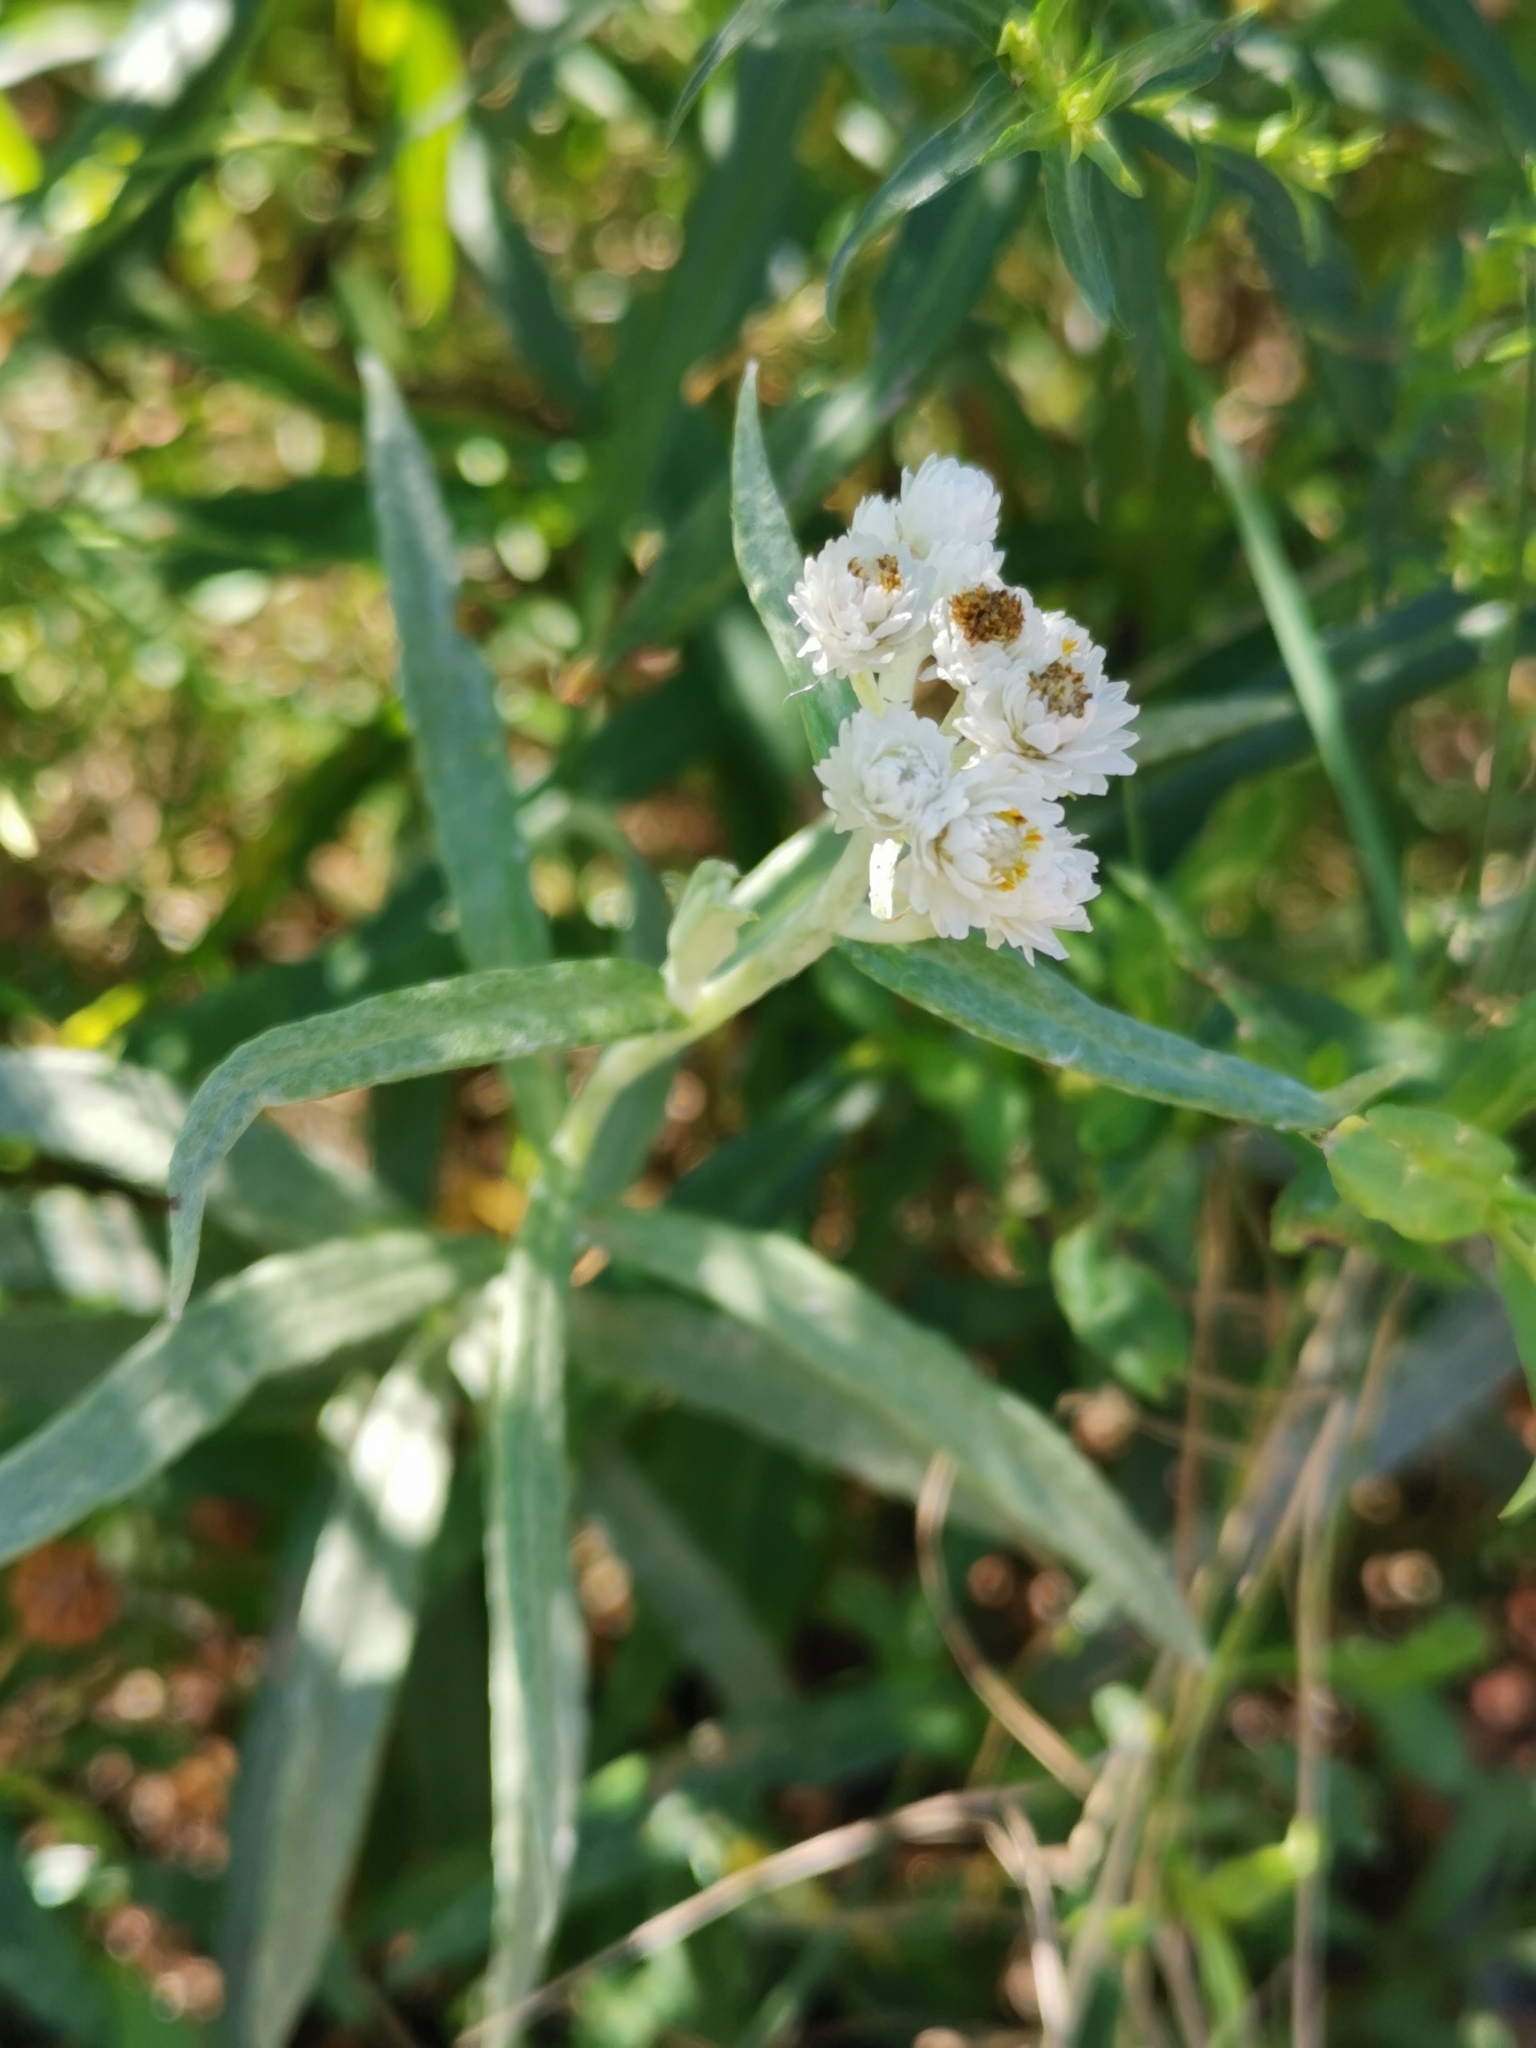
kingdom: Plantae
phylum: Tracheophyta
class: Magnoliopsida
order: Asterales
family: Asteraceae
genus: Anaphalis
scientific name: Anaphalis margaritacea
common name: Pearly everlasting
